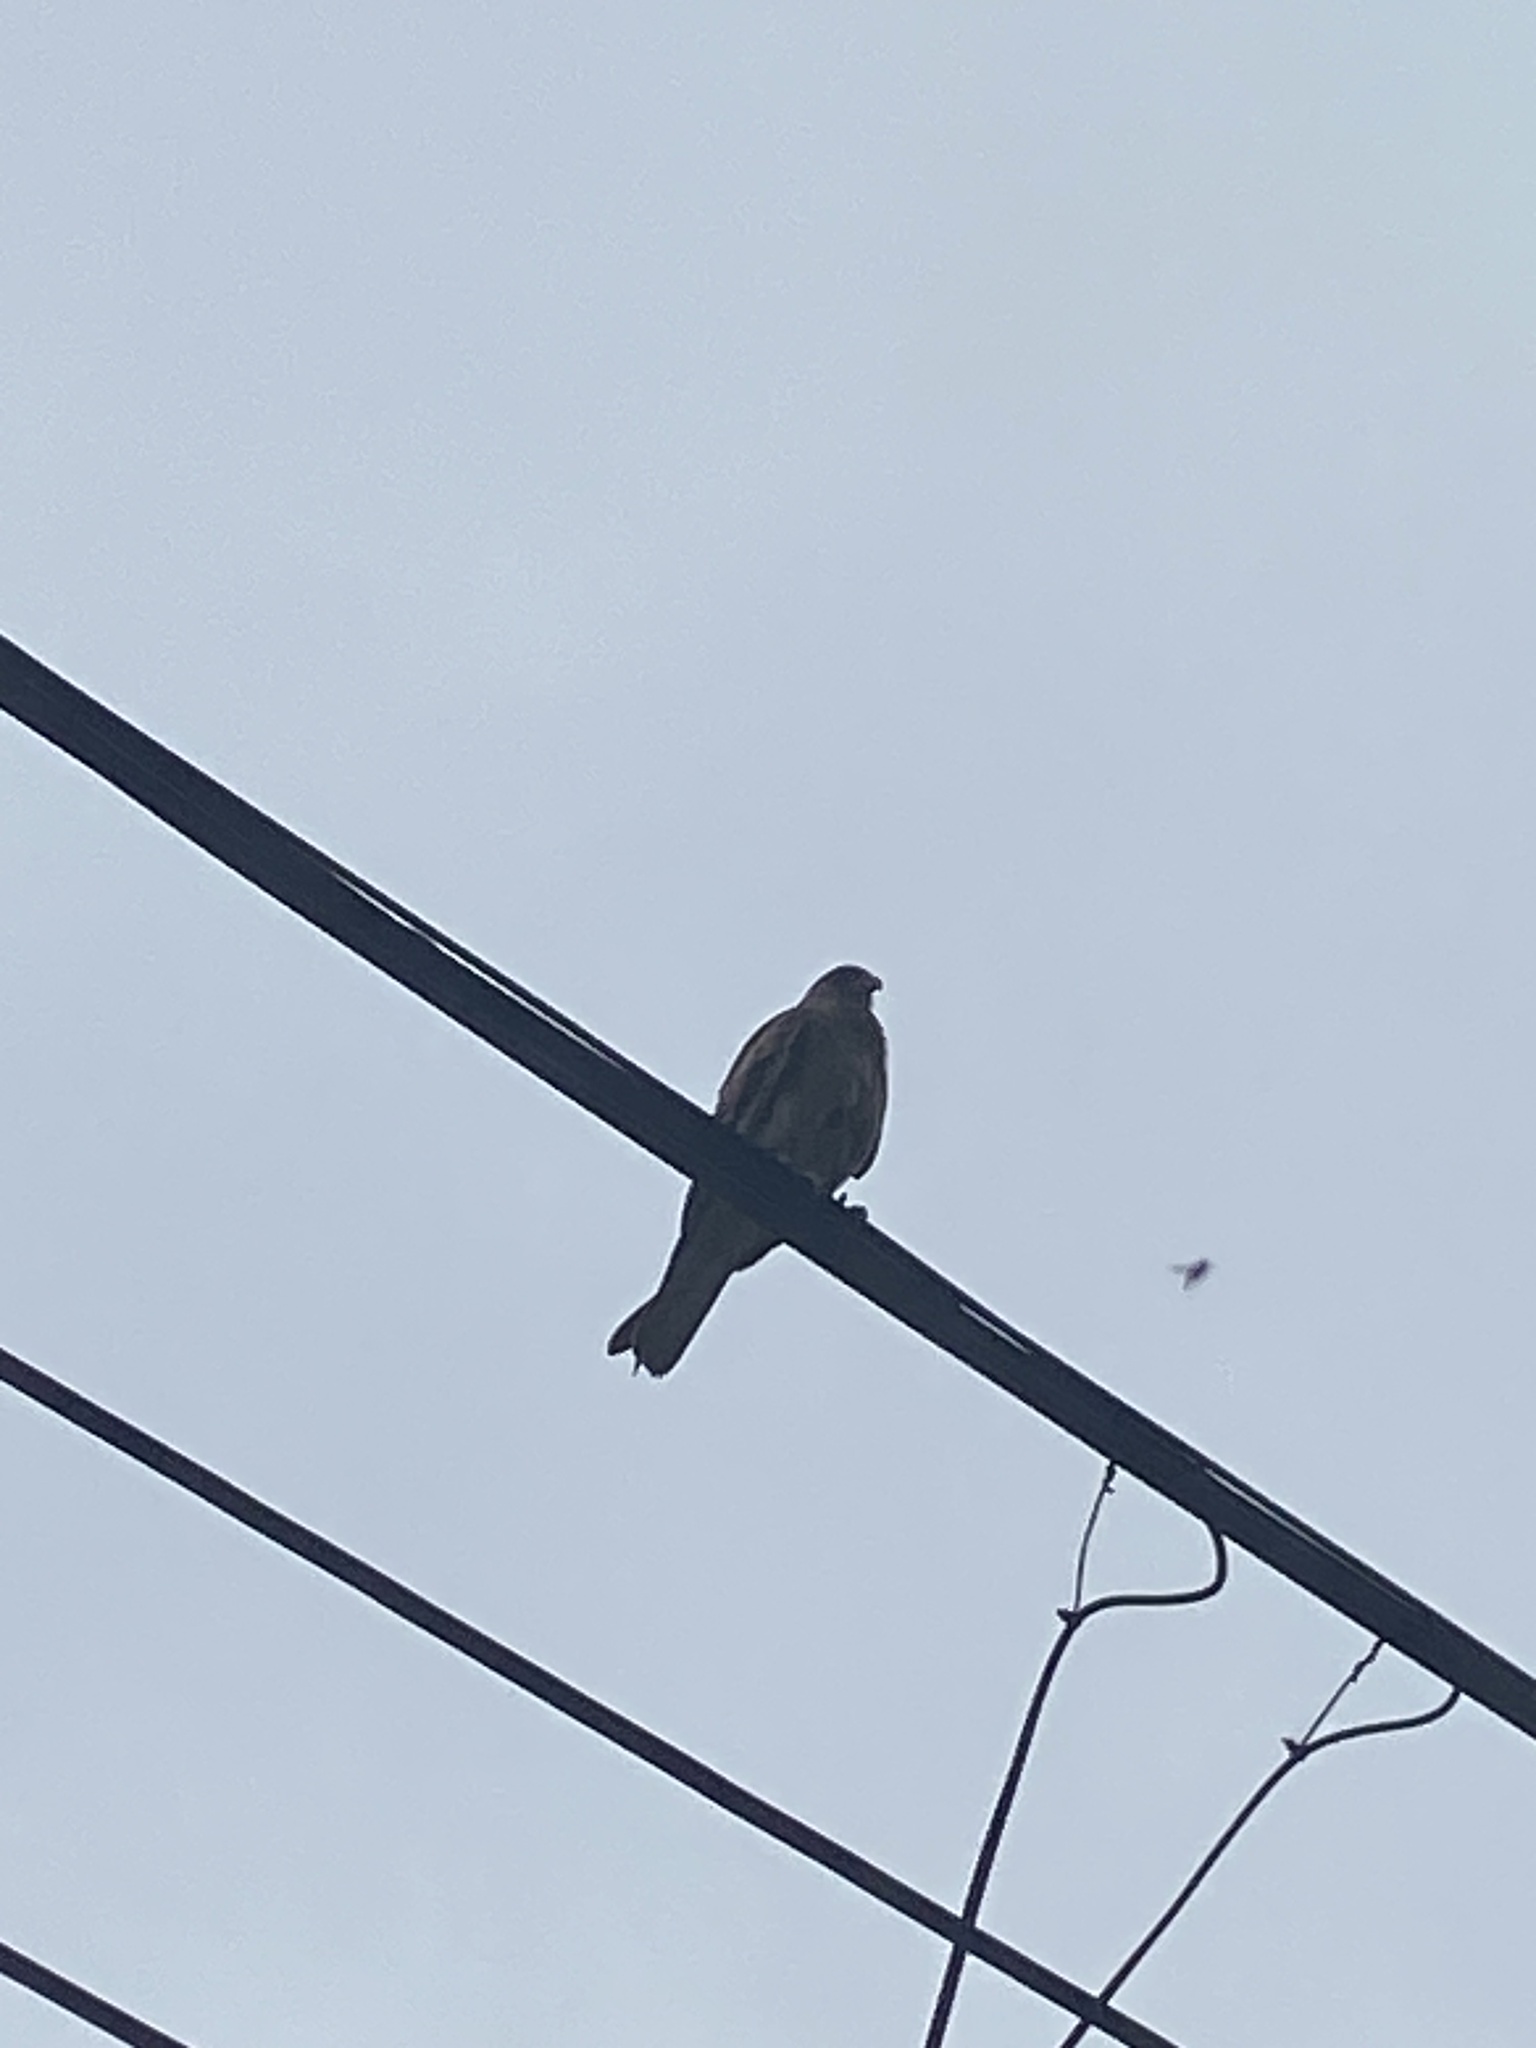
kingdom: Animalia
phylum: Chordata
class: Aves
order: Falconiformes
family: Falconidae
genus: Daptrius
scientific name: Daptrius
